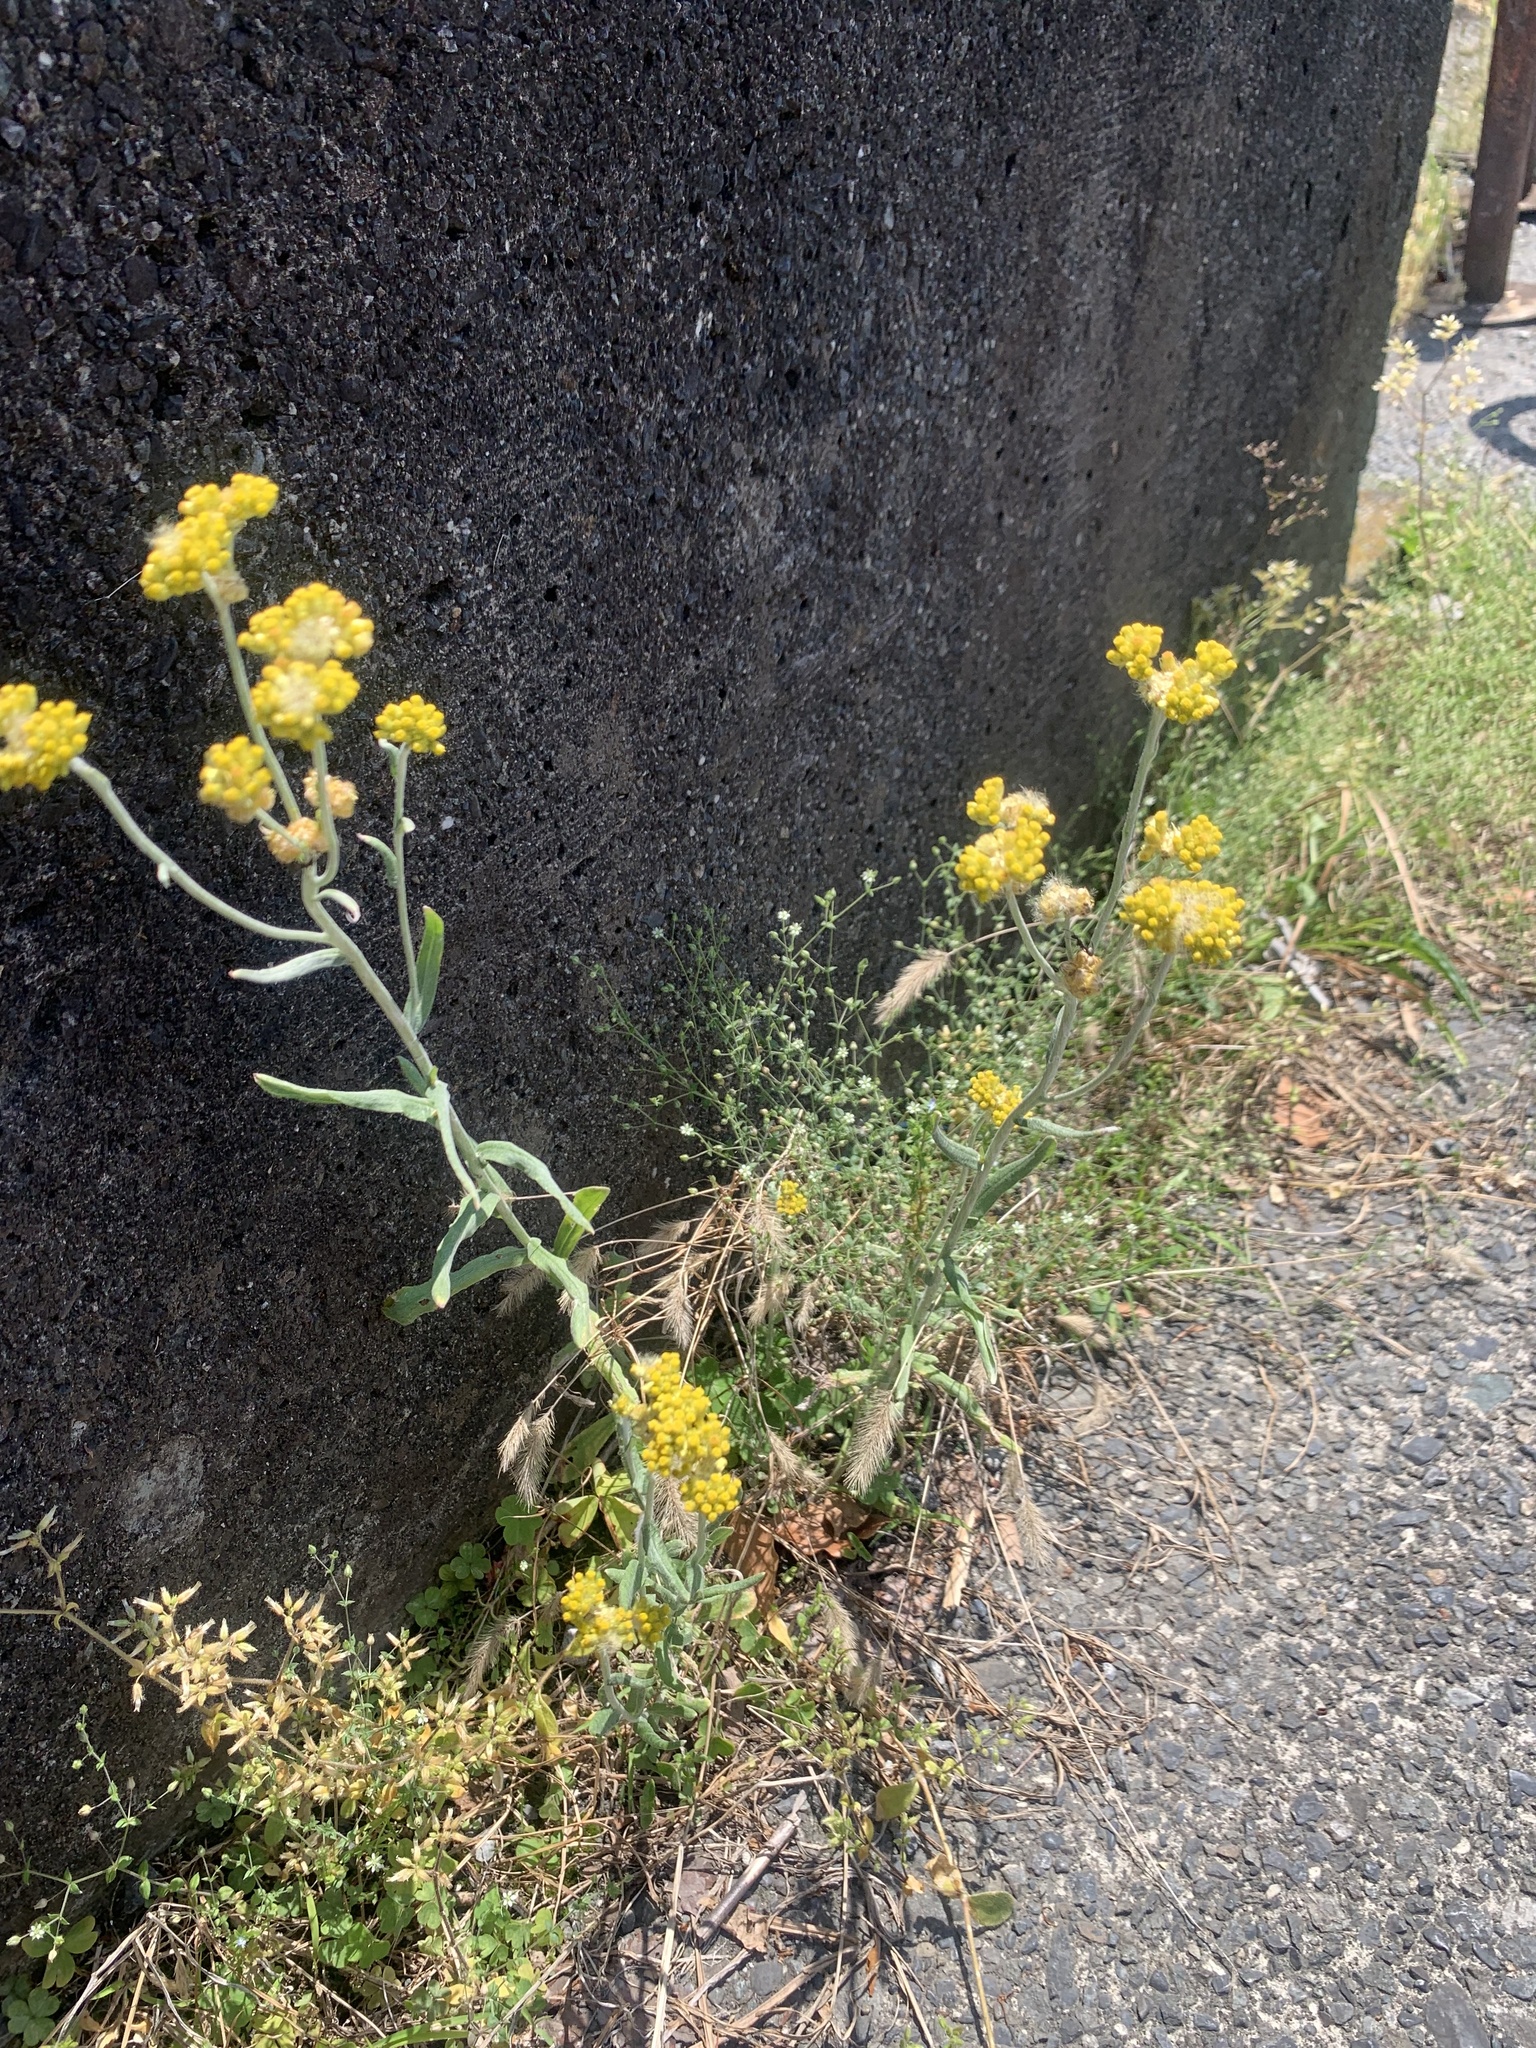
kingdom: Plantae
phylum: Tracheophyta
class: Magnoliopsida
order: Asterales
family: Asteraceae
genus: Pseudognaphalium
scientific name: Pseudognaphalium affine
